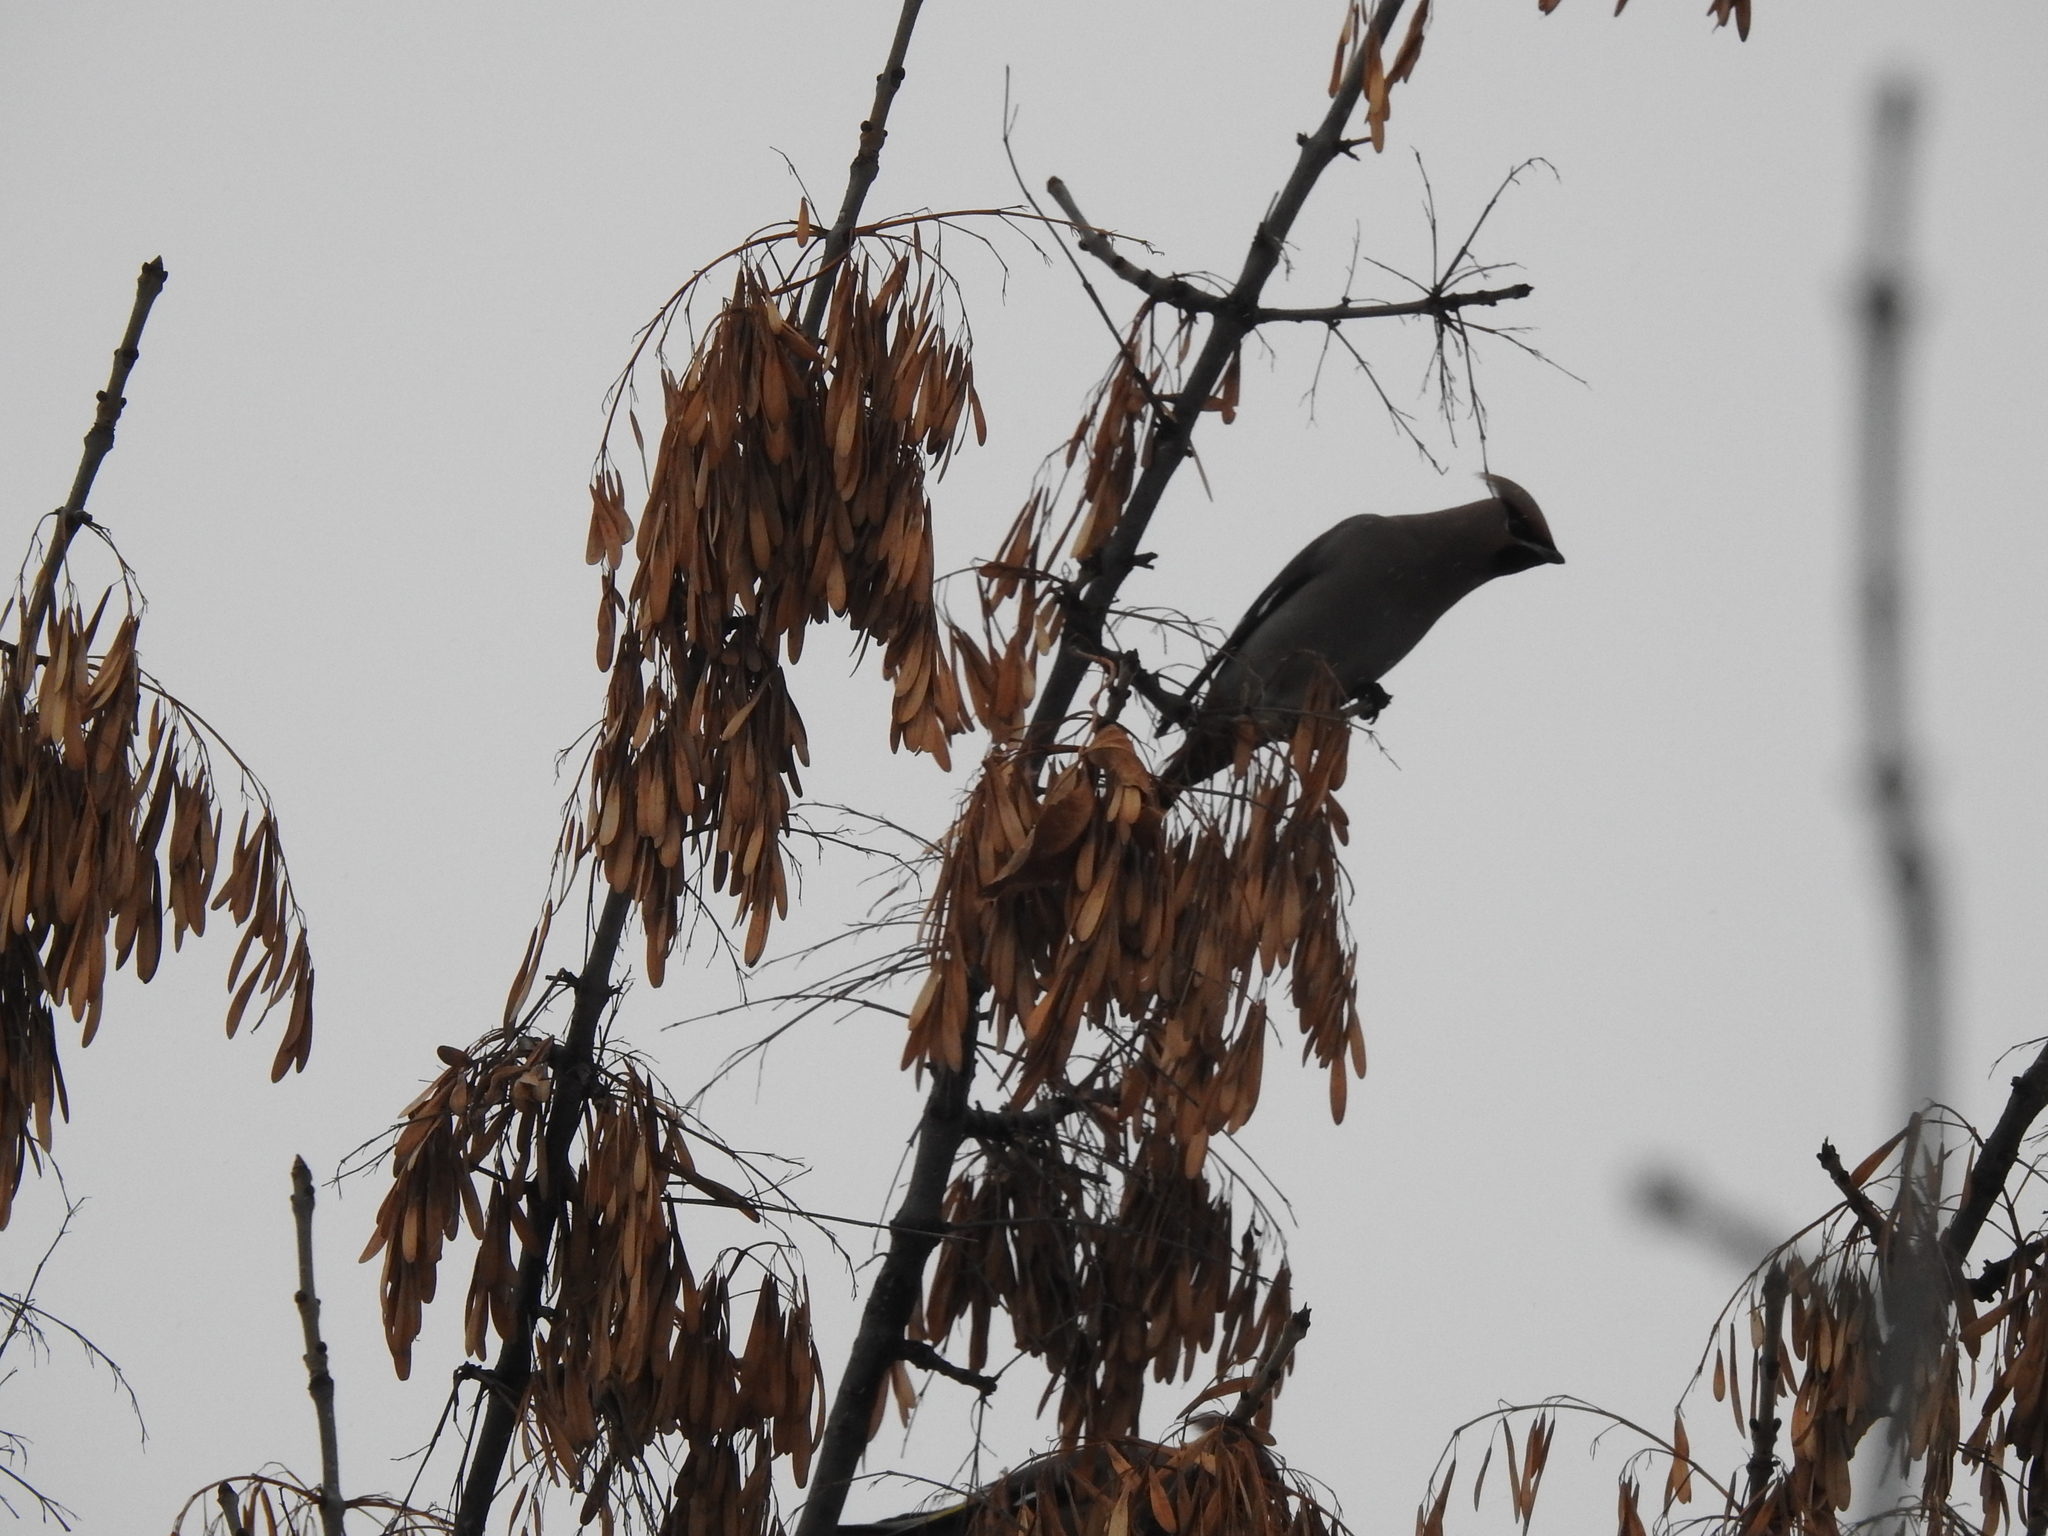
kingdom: Animalia
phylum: Chordata
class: Aves
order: Passeriformes
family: Bombycillidae
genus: Bombycilla
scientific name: Bombycilla garrulus
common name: Bohemian waxwing
